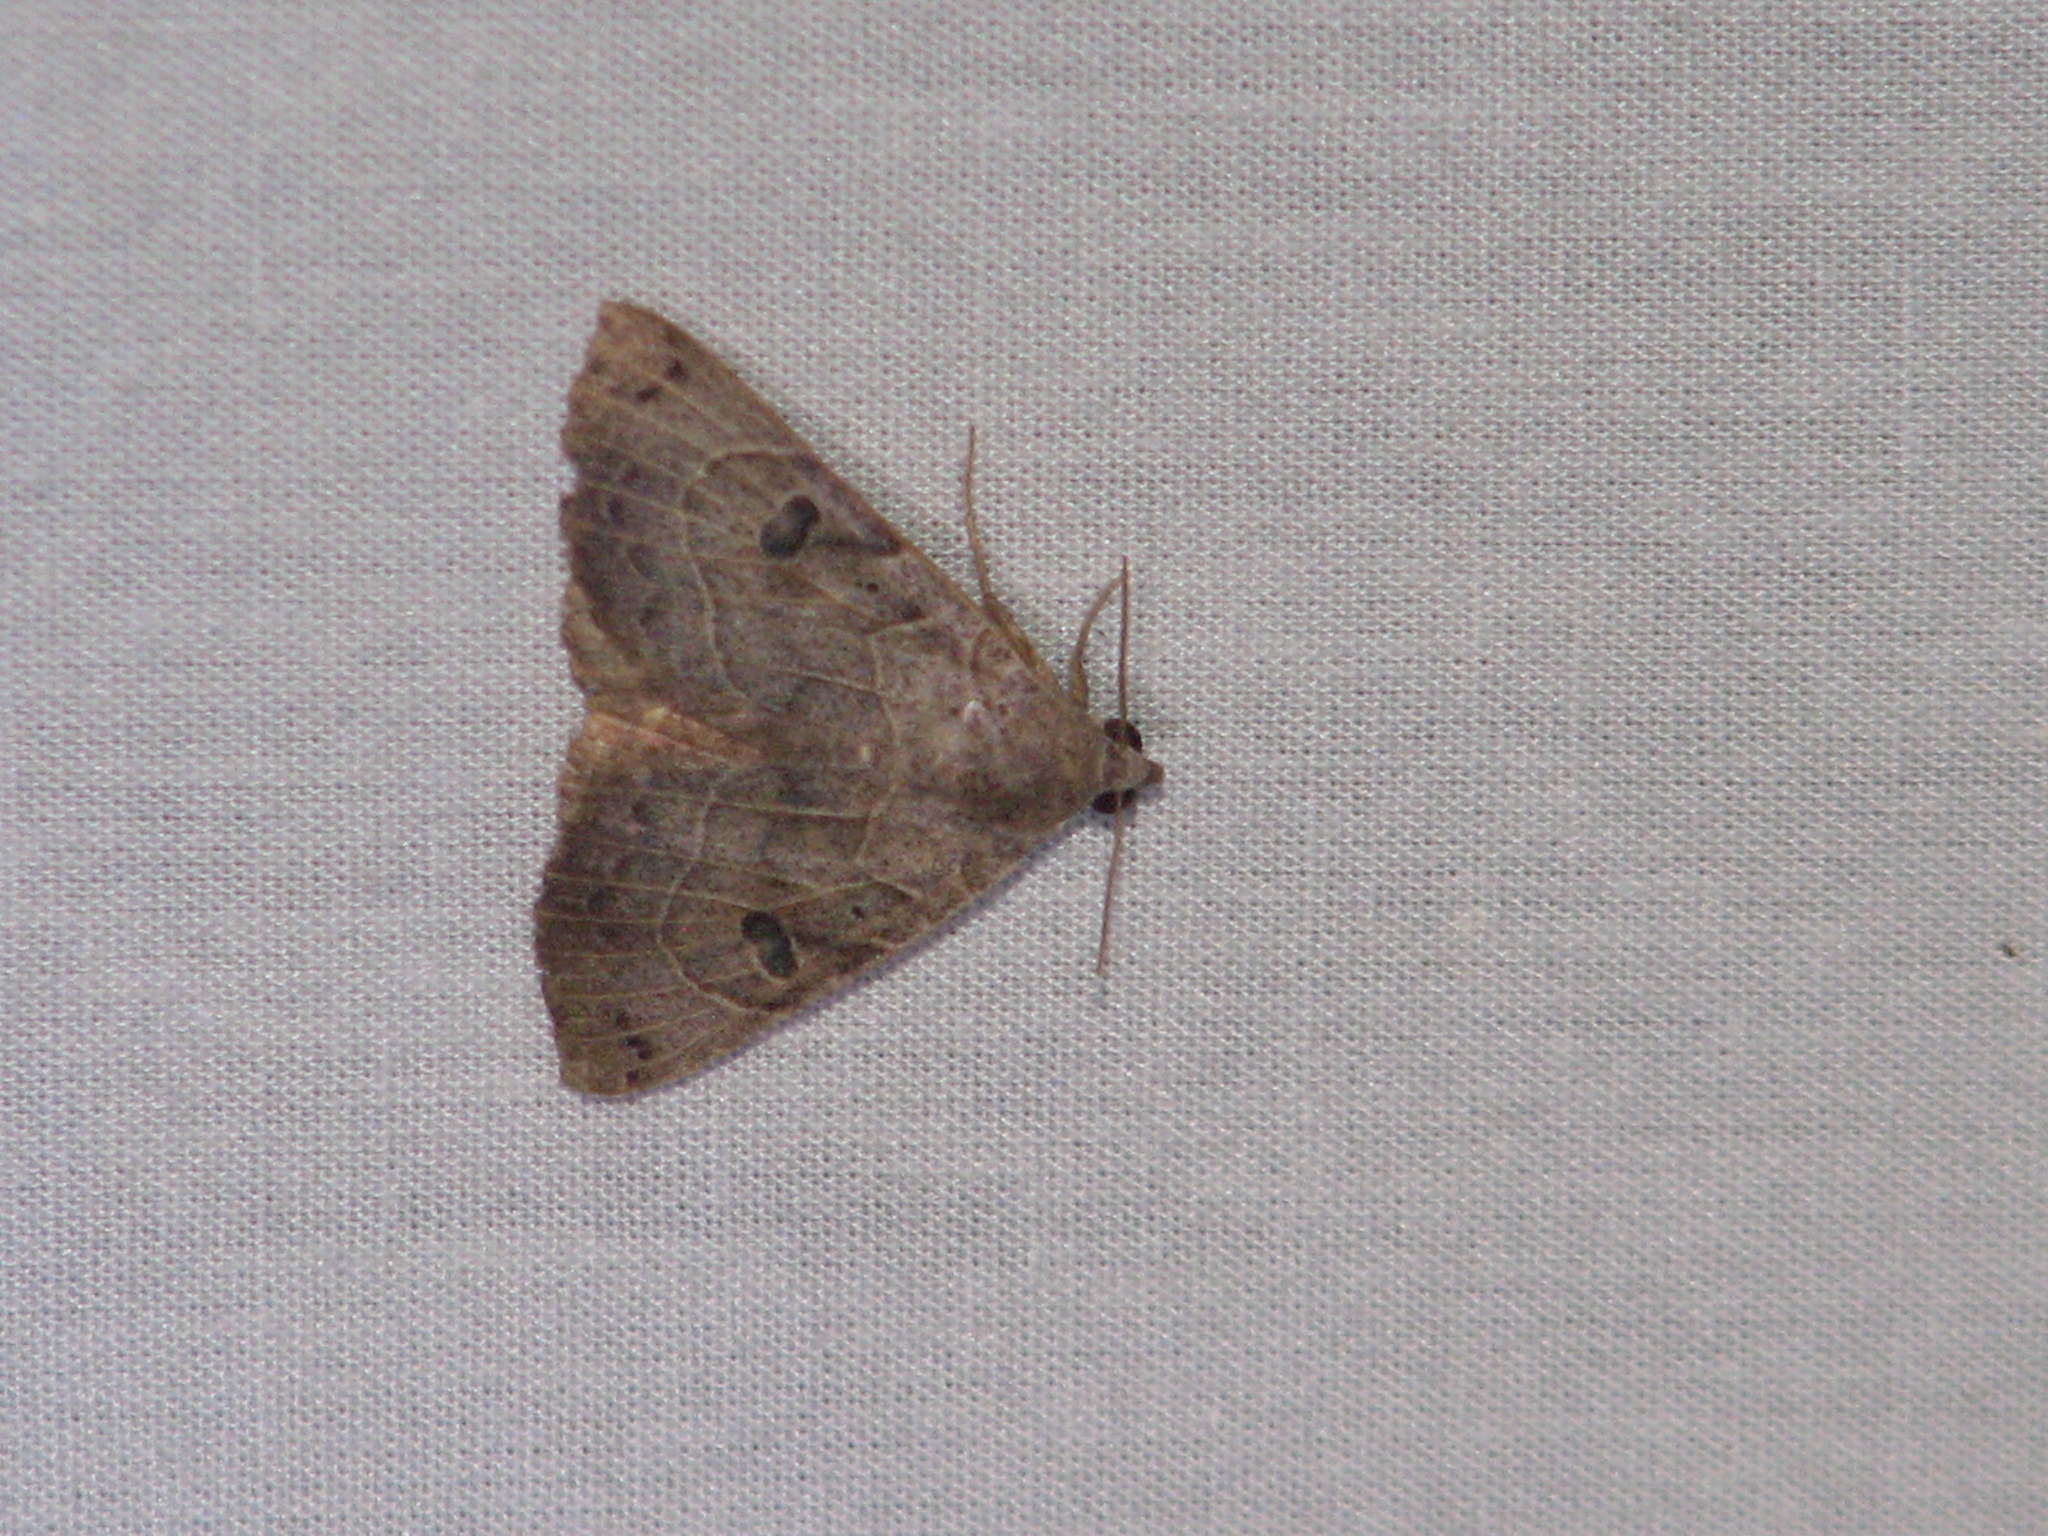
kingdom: Animalia
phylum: Arthropoda
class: Insecta
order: Lepidoptera
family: Erebidae
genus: Isogona
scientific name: Isogona scindens
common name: Owlet moth
